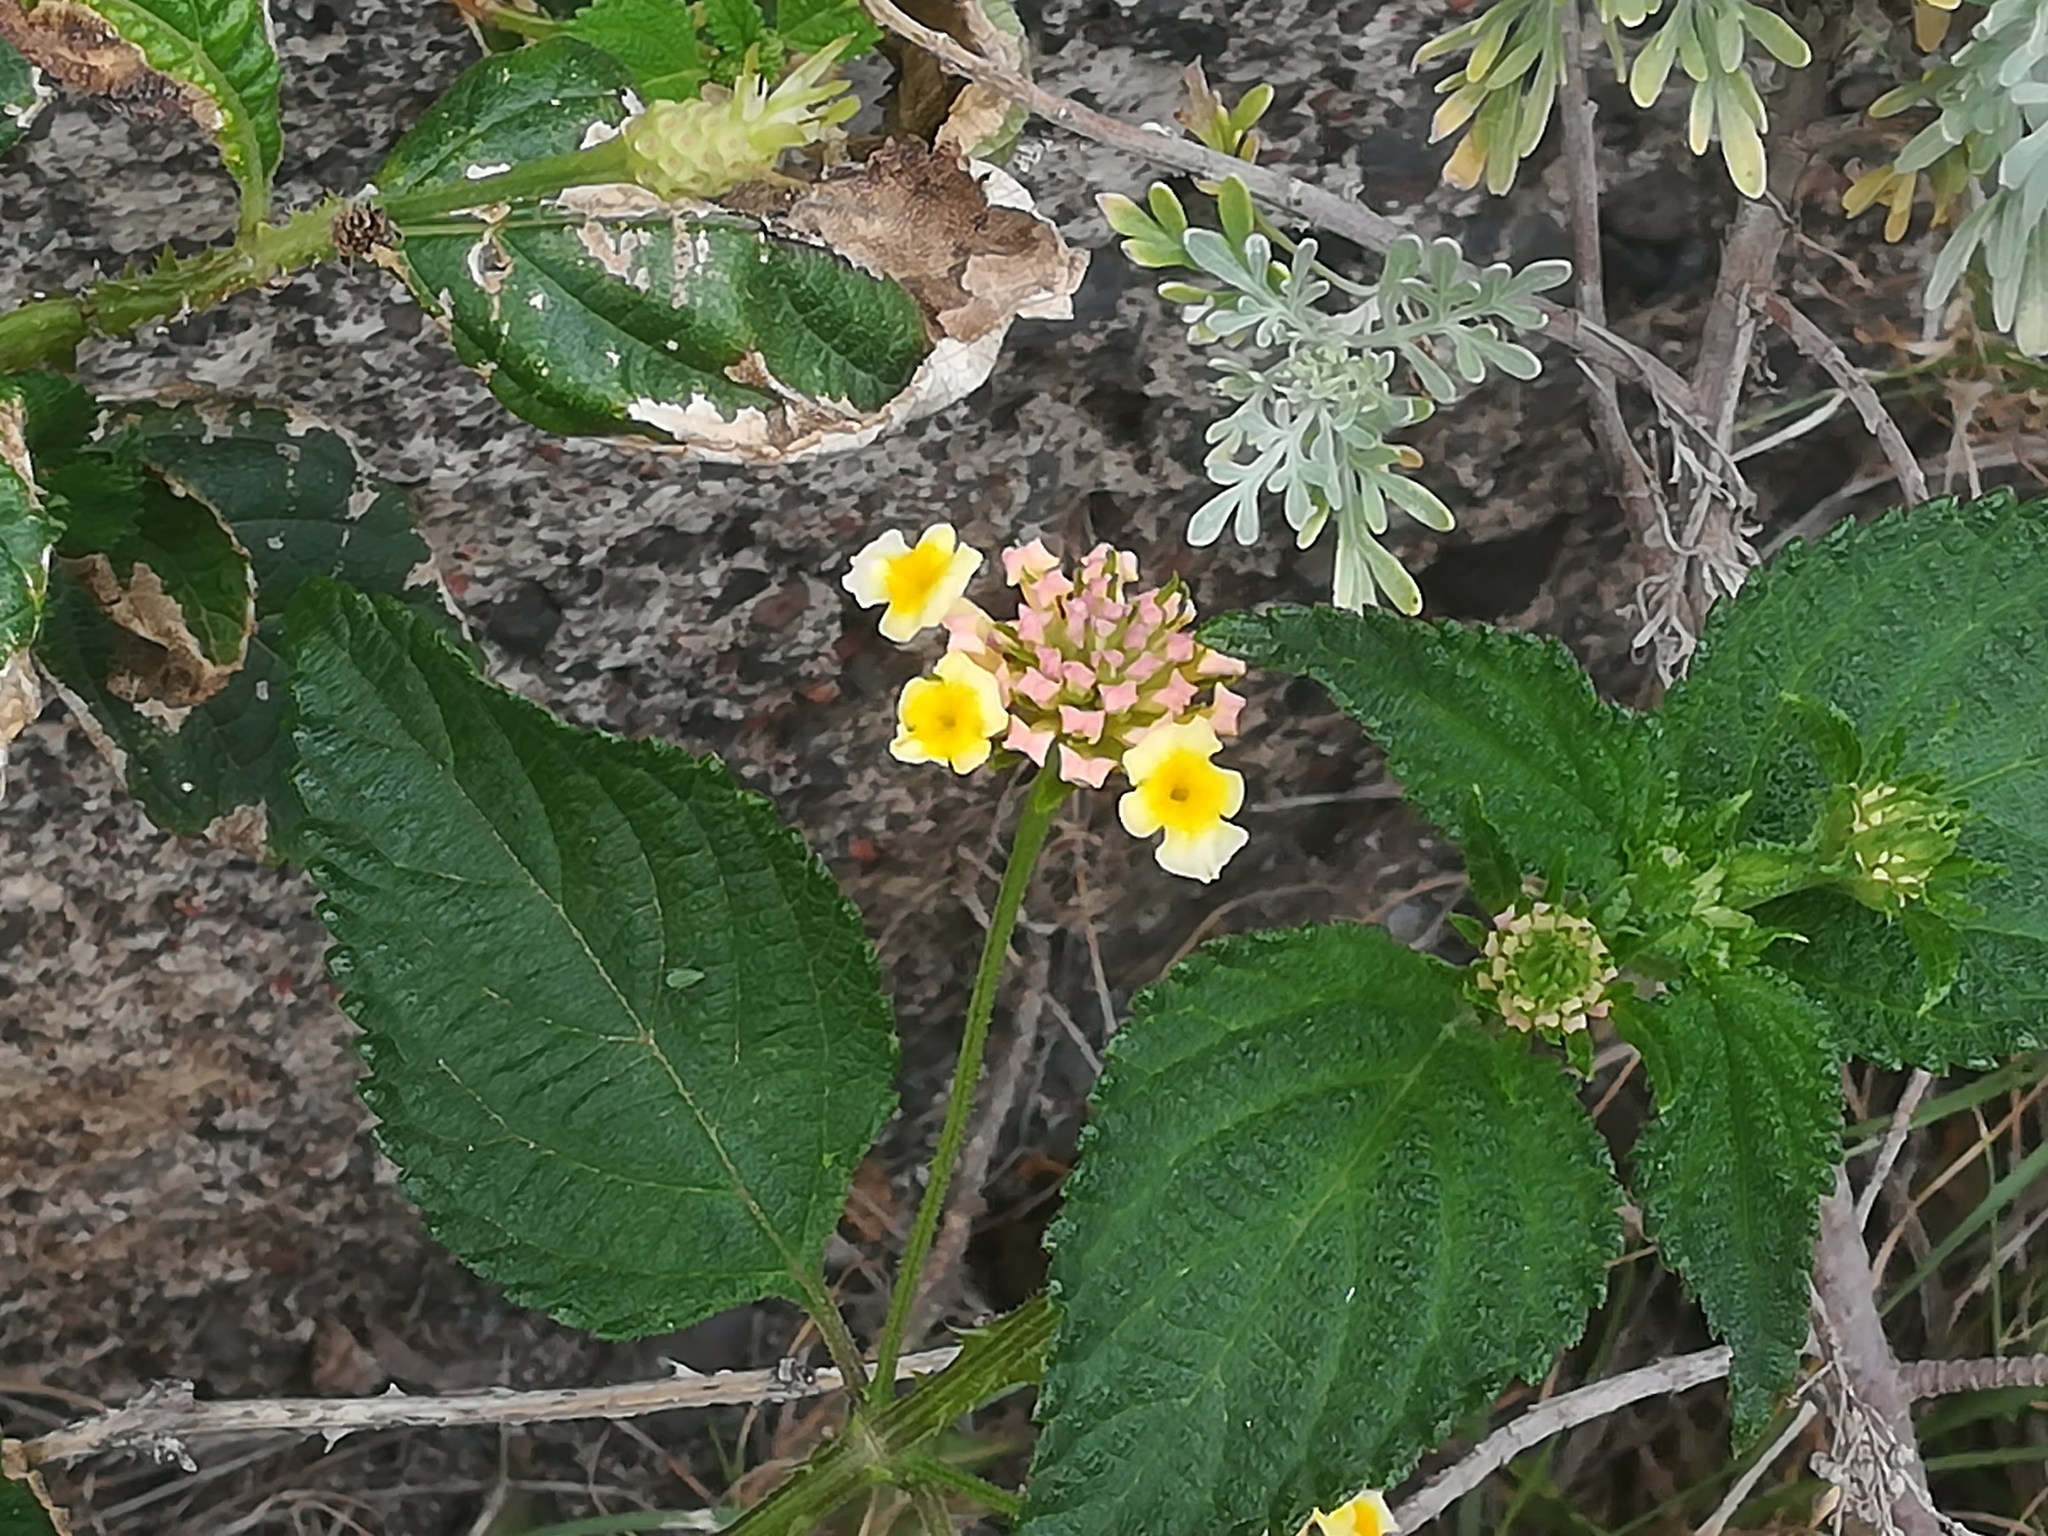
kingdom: Plantae
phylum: Tracheophyta
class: Magnoliopsida
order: Lamiales
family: Verbenaceae
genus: Lantana
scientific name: Lantana camara
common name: Lantana
